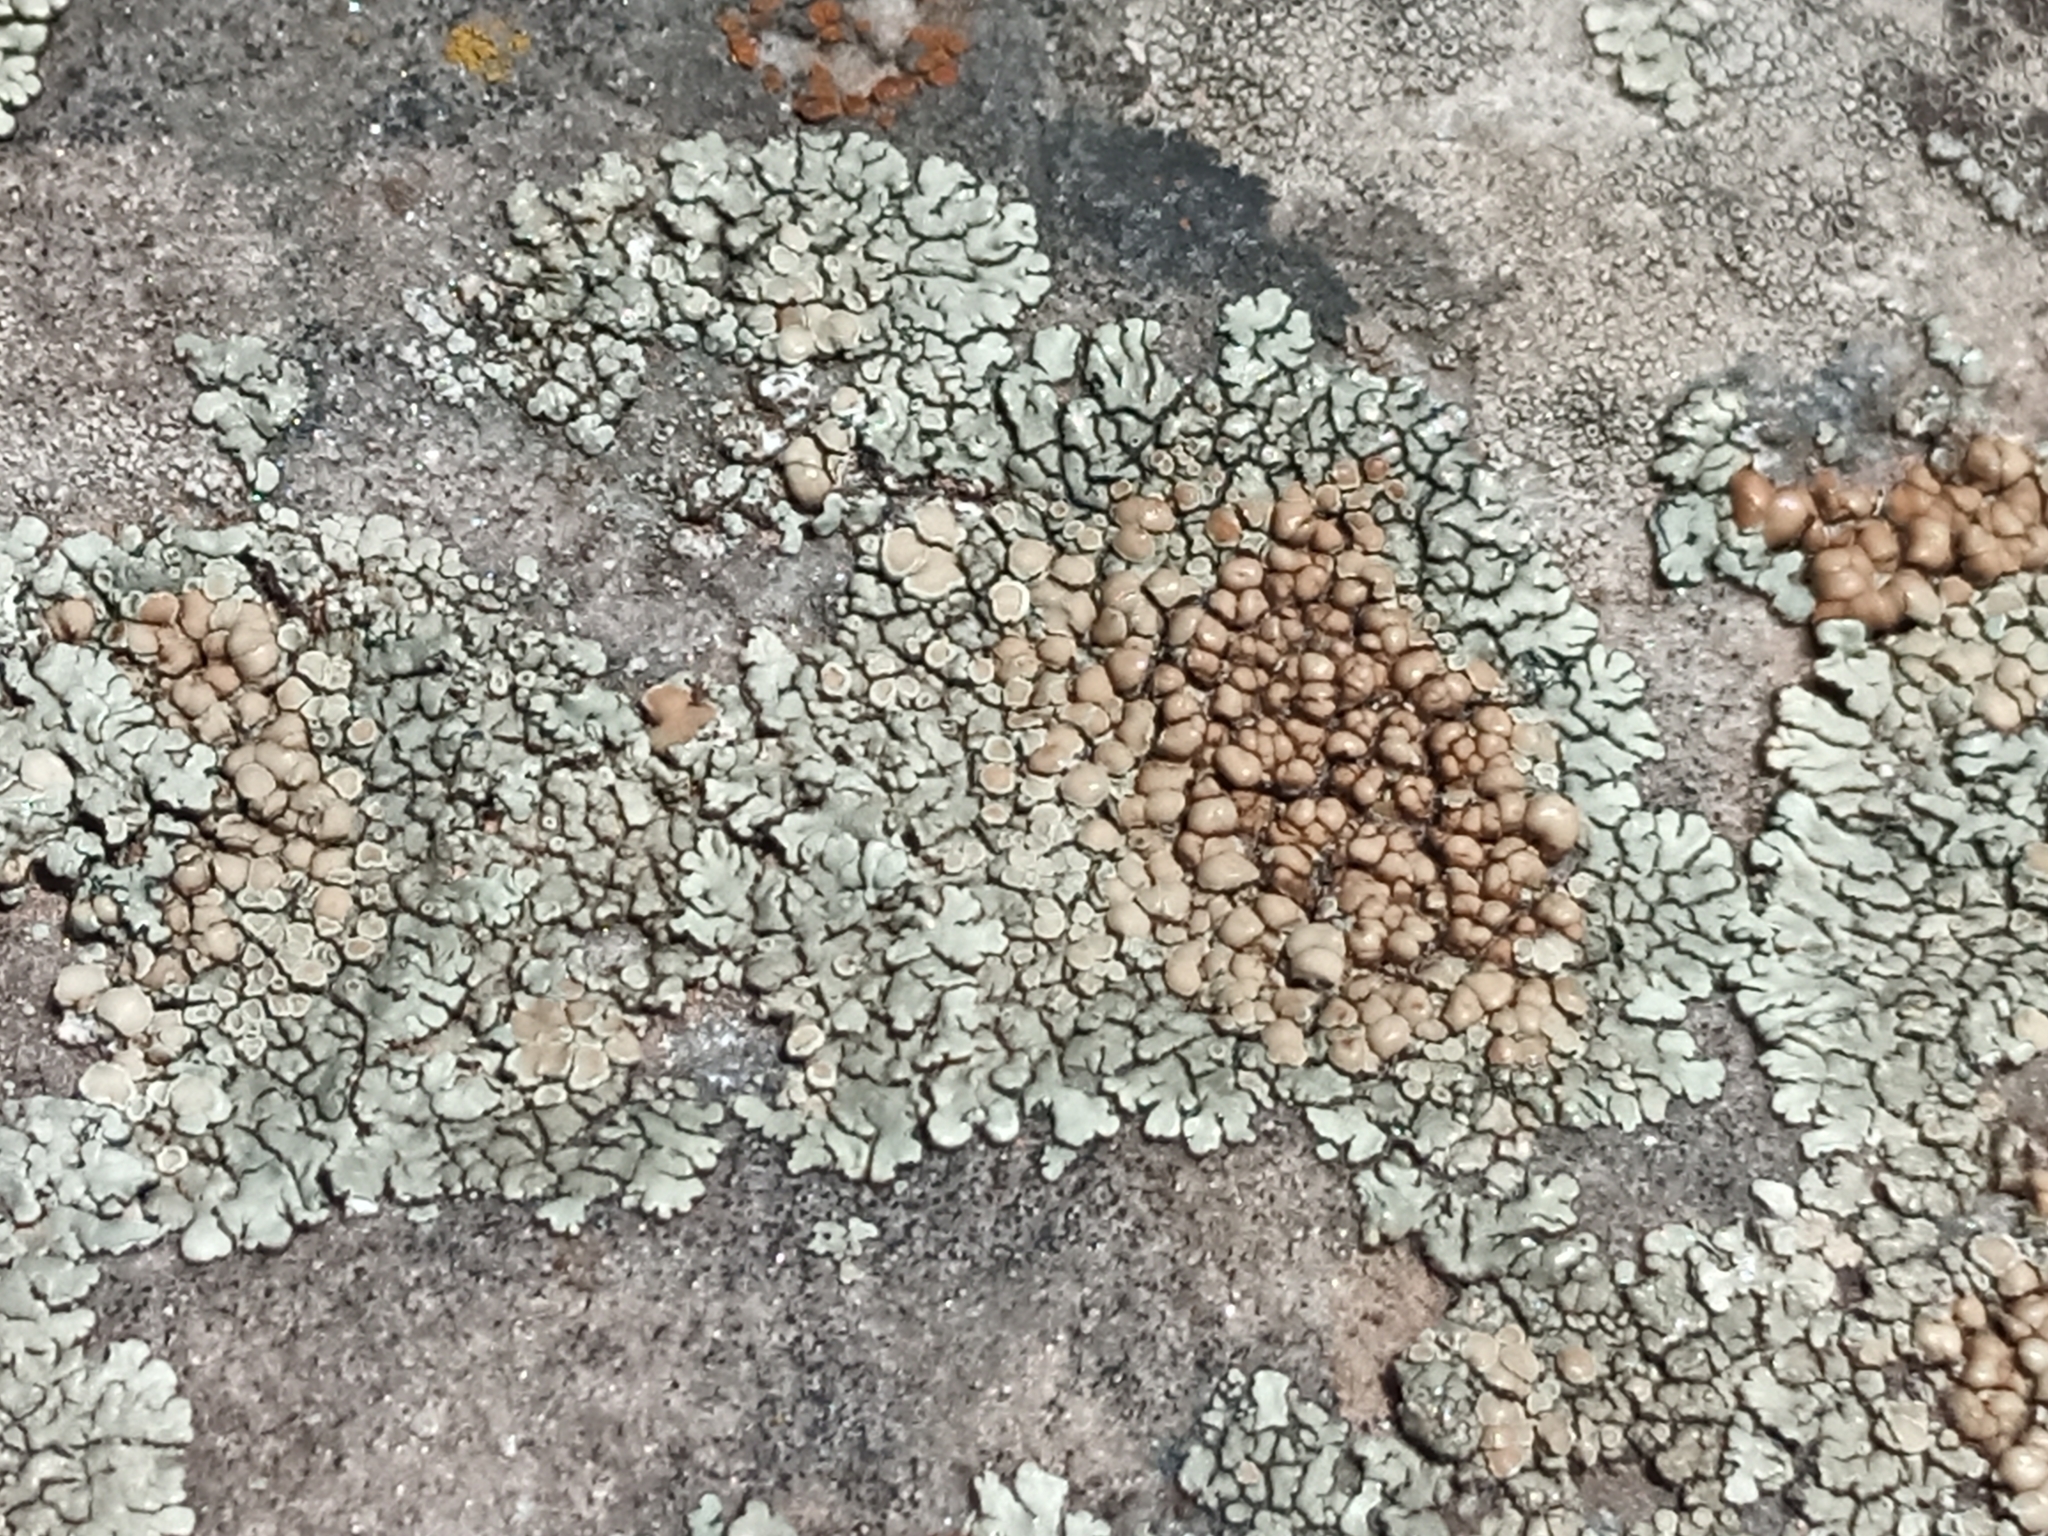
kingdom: Fungi
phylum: Ascomycota
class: Lecanoromycetes
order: Lecanorales
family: Lecanoraceae
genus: Protoparmeliopsis
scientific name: Protoparmeliopsis muralis
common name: Stonewall rim lichen
